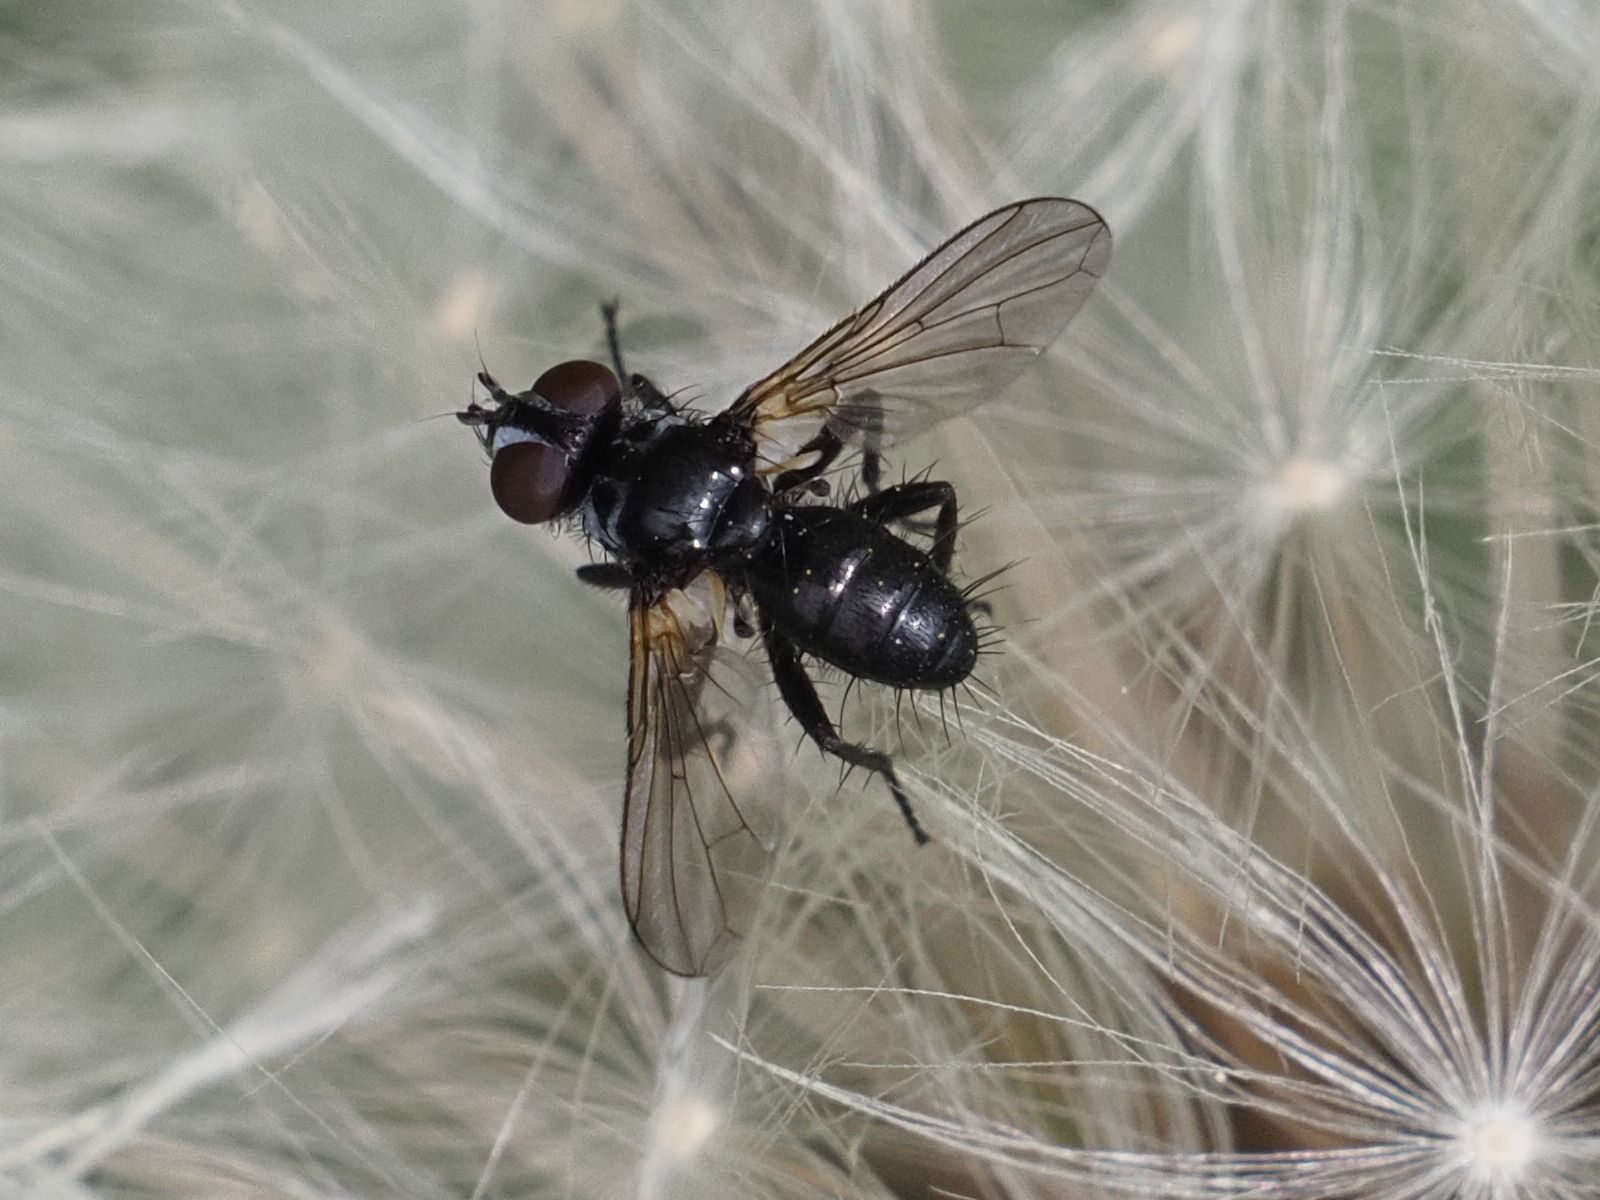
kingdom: Animalia
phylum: Arthropoda
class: Insecta
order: Diptera
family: Tachinidae
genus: Phania
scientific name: Phania funesta
